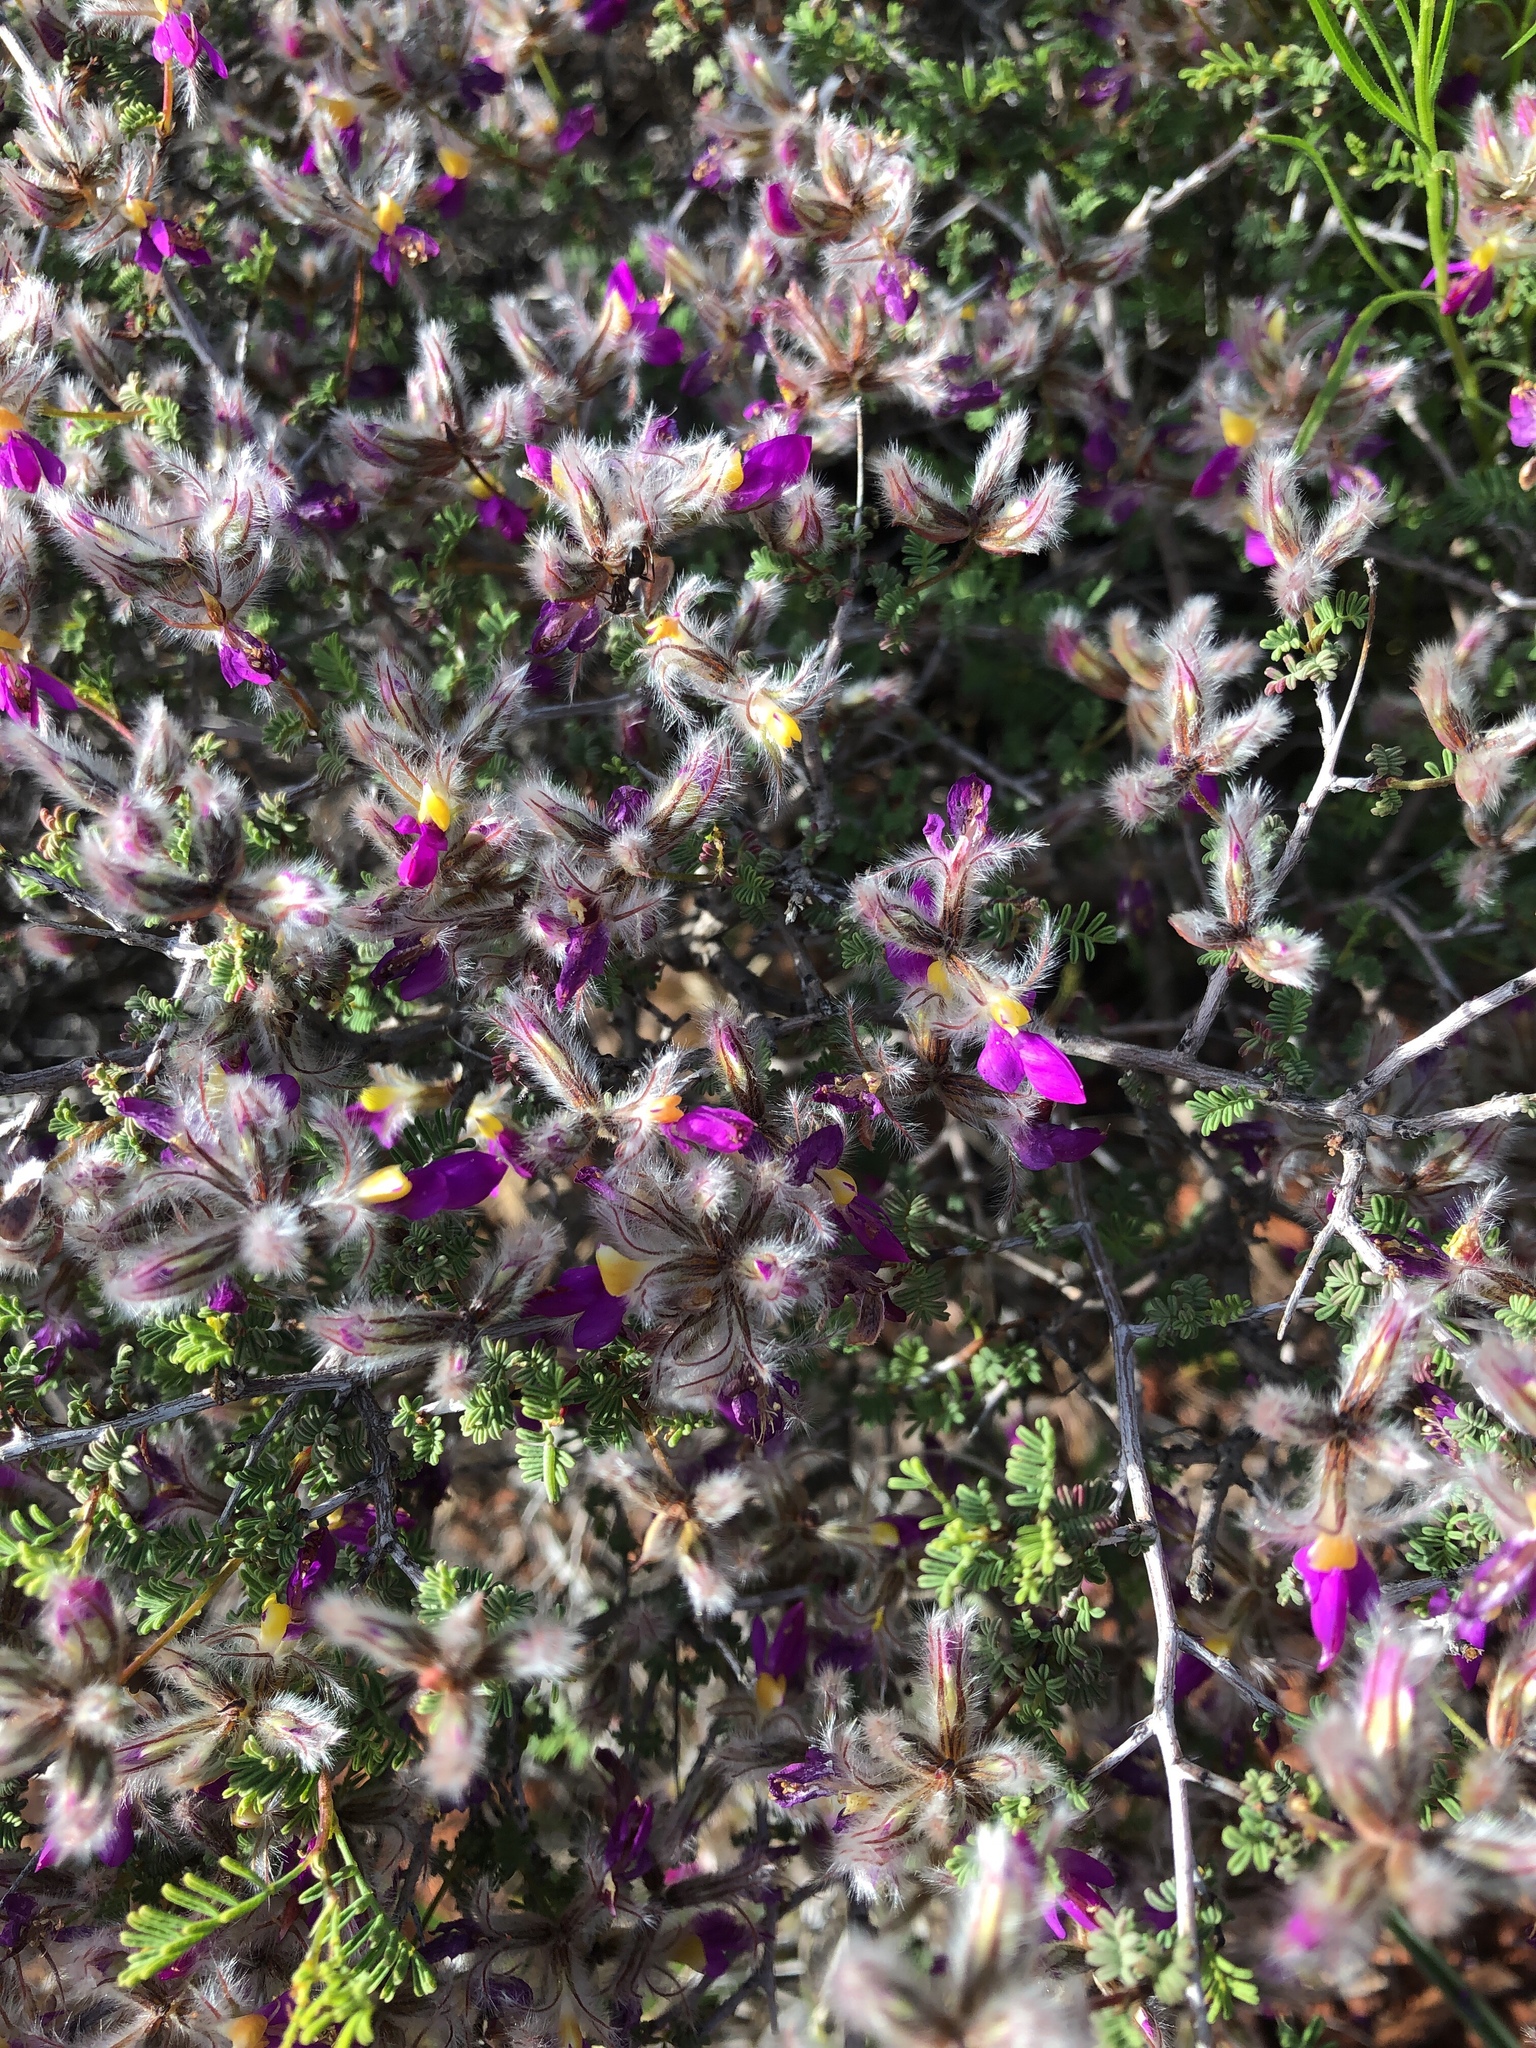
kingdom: Plantae
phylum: Tracheophyta
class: Magnoliopsida
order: Fabales
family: Fabaceae
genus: Dalea
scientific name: Dalea formosa
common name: Feather-plume dalea
